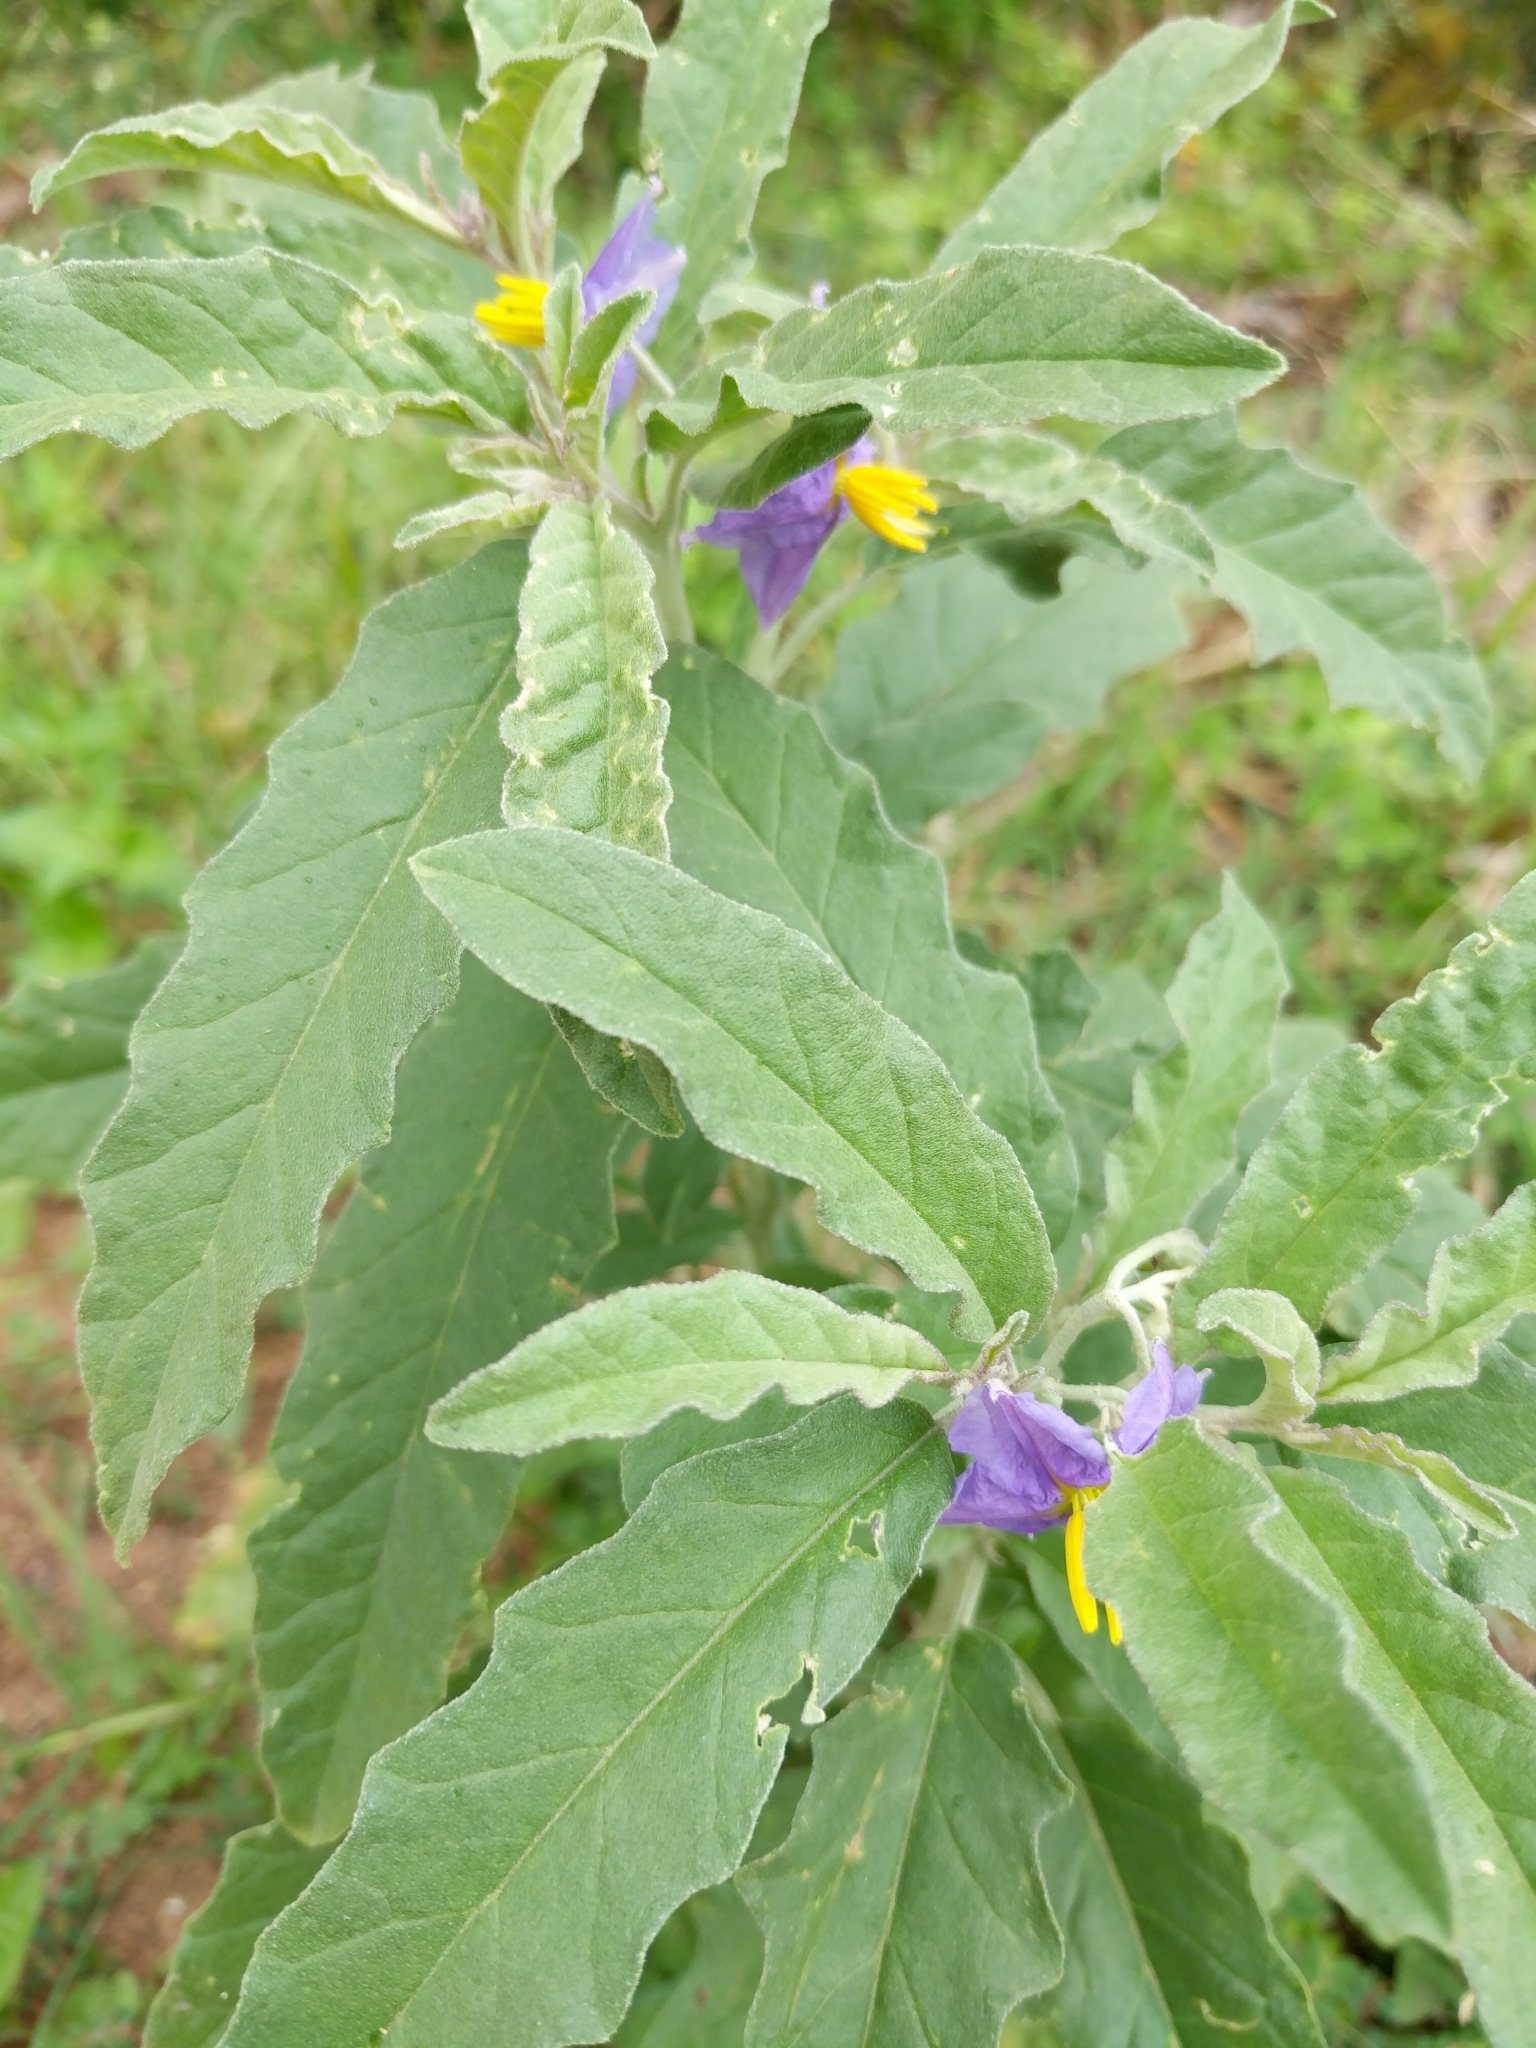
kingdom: Plantae
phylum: Tracheophyta
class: Magnoliopsida
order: Solanales
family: Solanaceae
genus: Solanum
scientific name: Solanum elaeagnifolium
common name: Silverleaf nightshade
